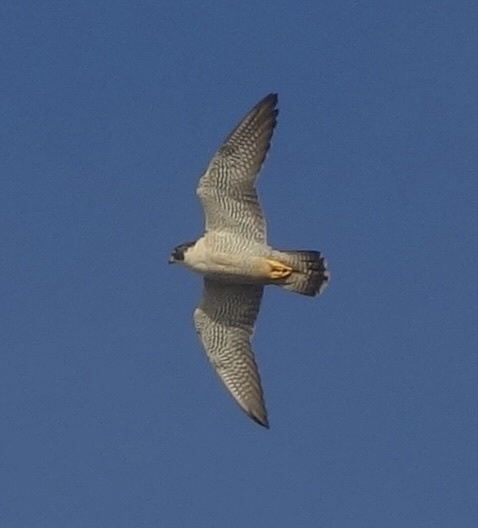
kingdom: Animalia
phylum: Chordata
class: Aves
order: Falconiformes
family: Falconidae
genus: Falco
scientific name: Falco peregrinus
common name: Peregrine falcon
